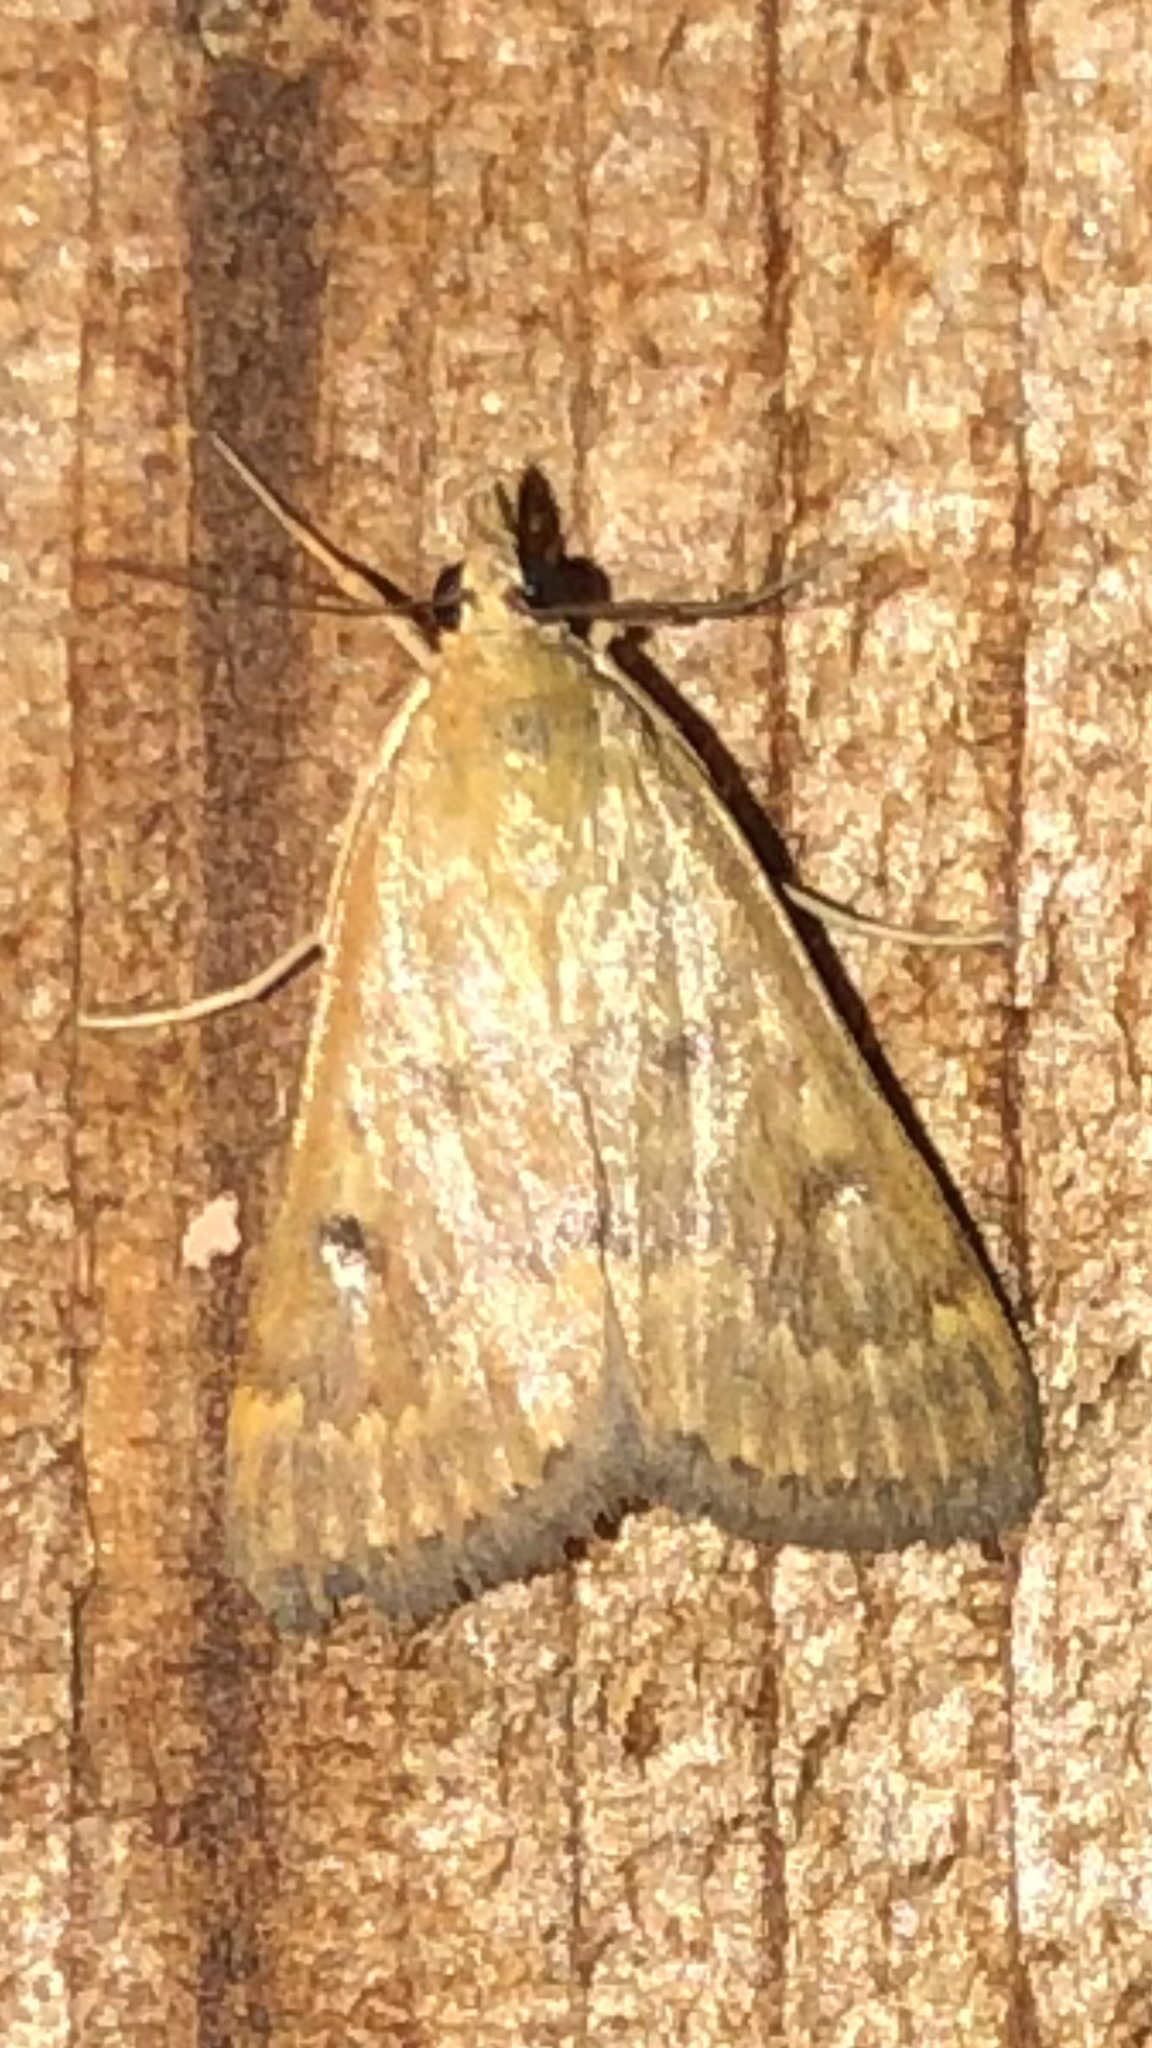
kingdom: Animalia
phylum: Arthropoda
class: Insecta
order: Lepidoptera
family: Crambidae
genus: Achyra
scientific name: Achyra rantalis
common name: Garden webworm
